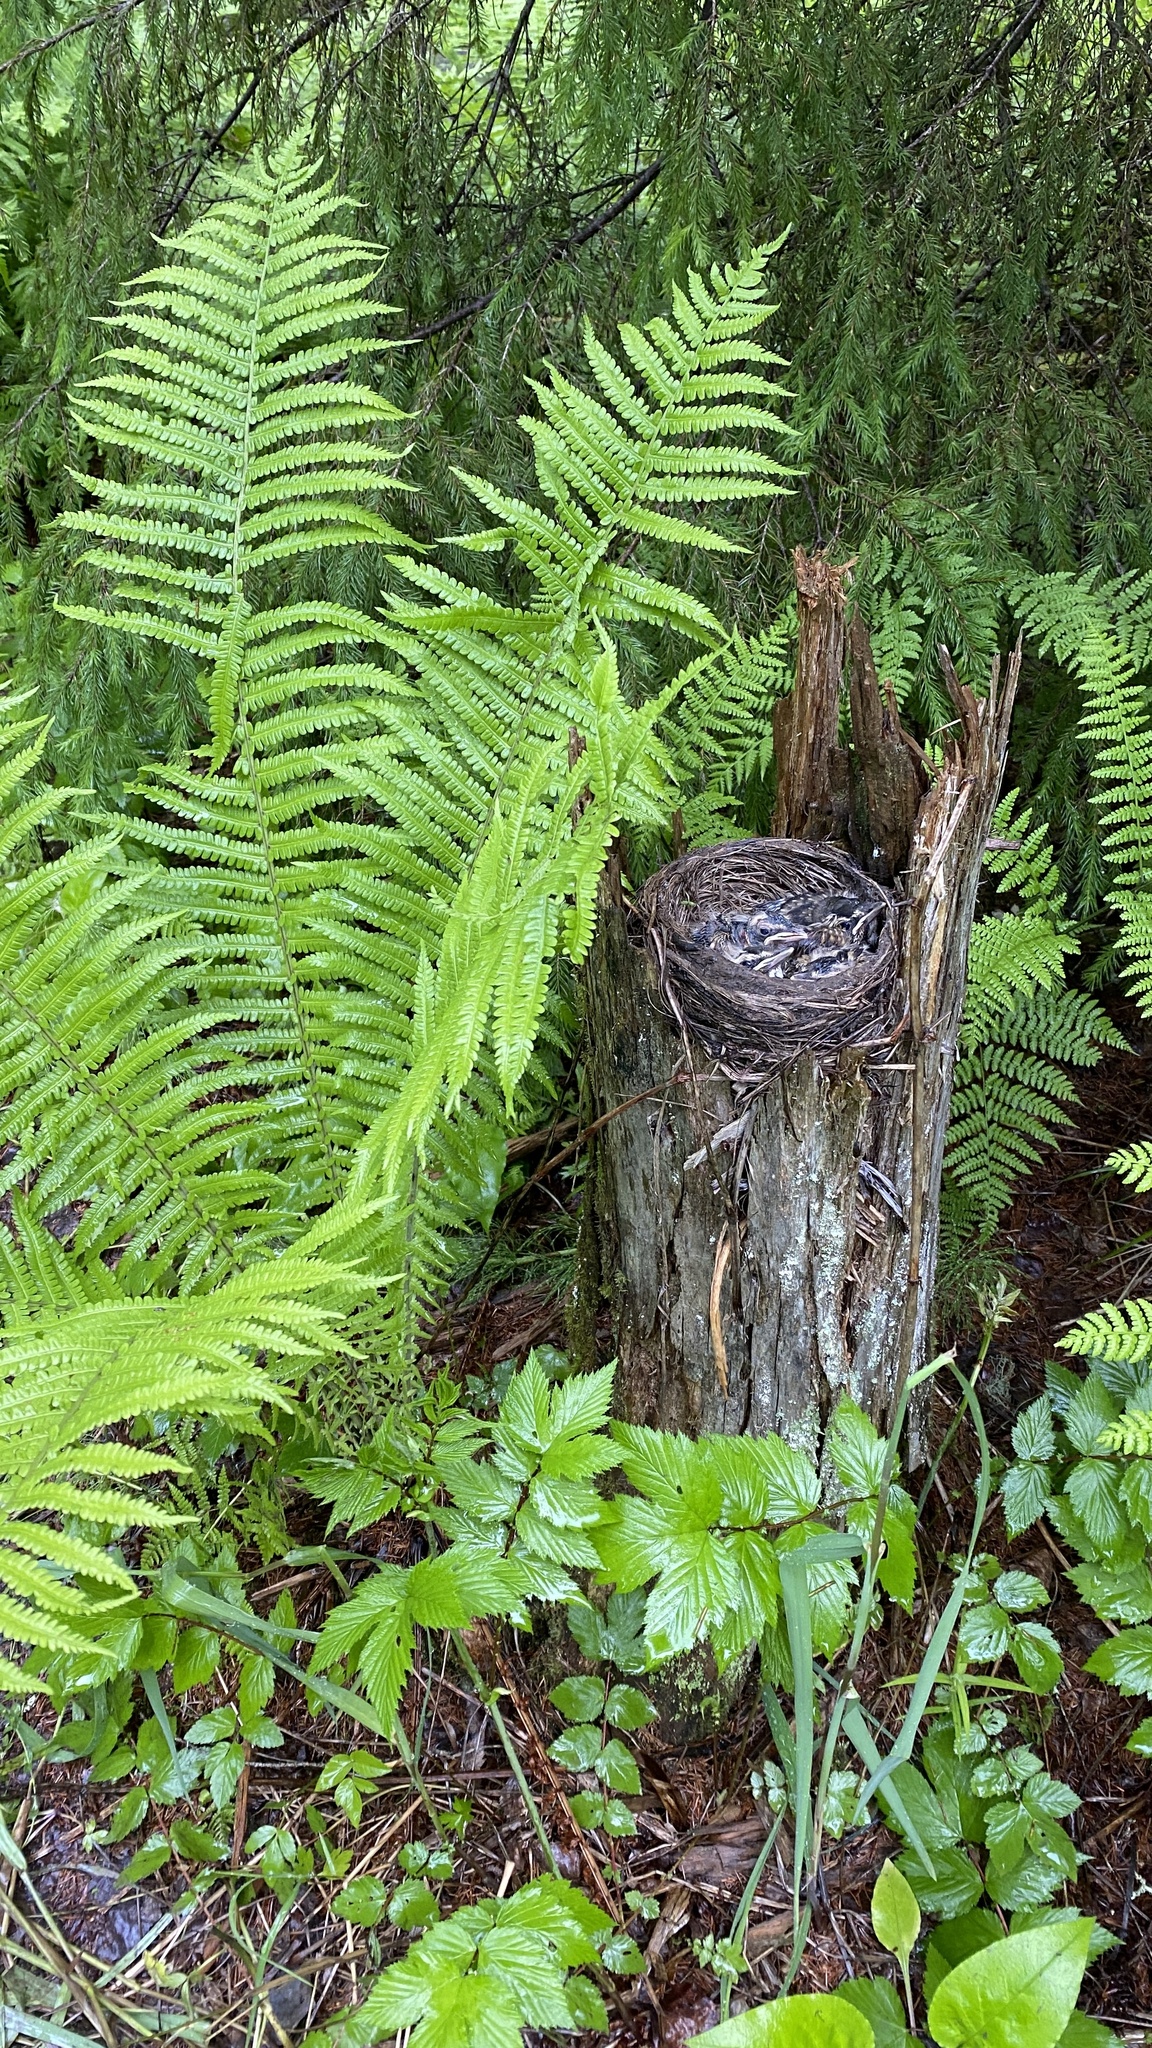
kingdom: Animalia
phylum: Chordata
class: Aves
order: Passeriformes
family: Turdidae
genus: Turdus
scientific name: Turdus iliacus
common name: Redwing
